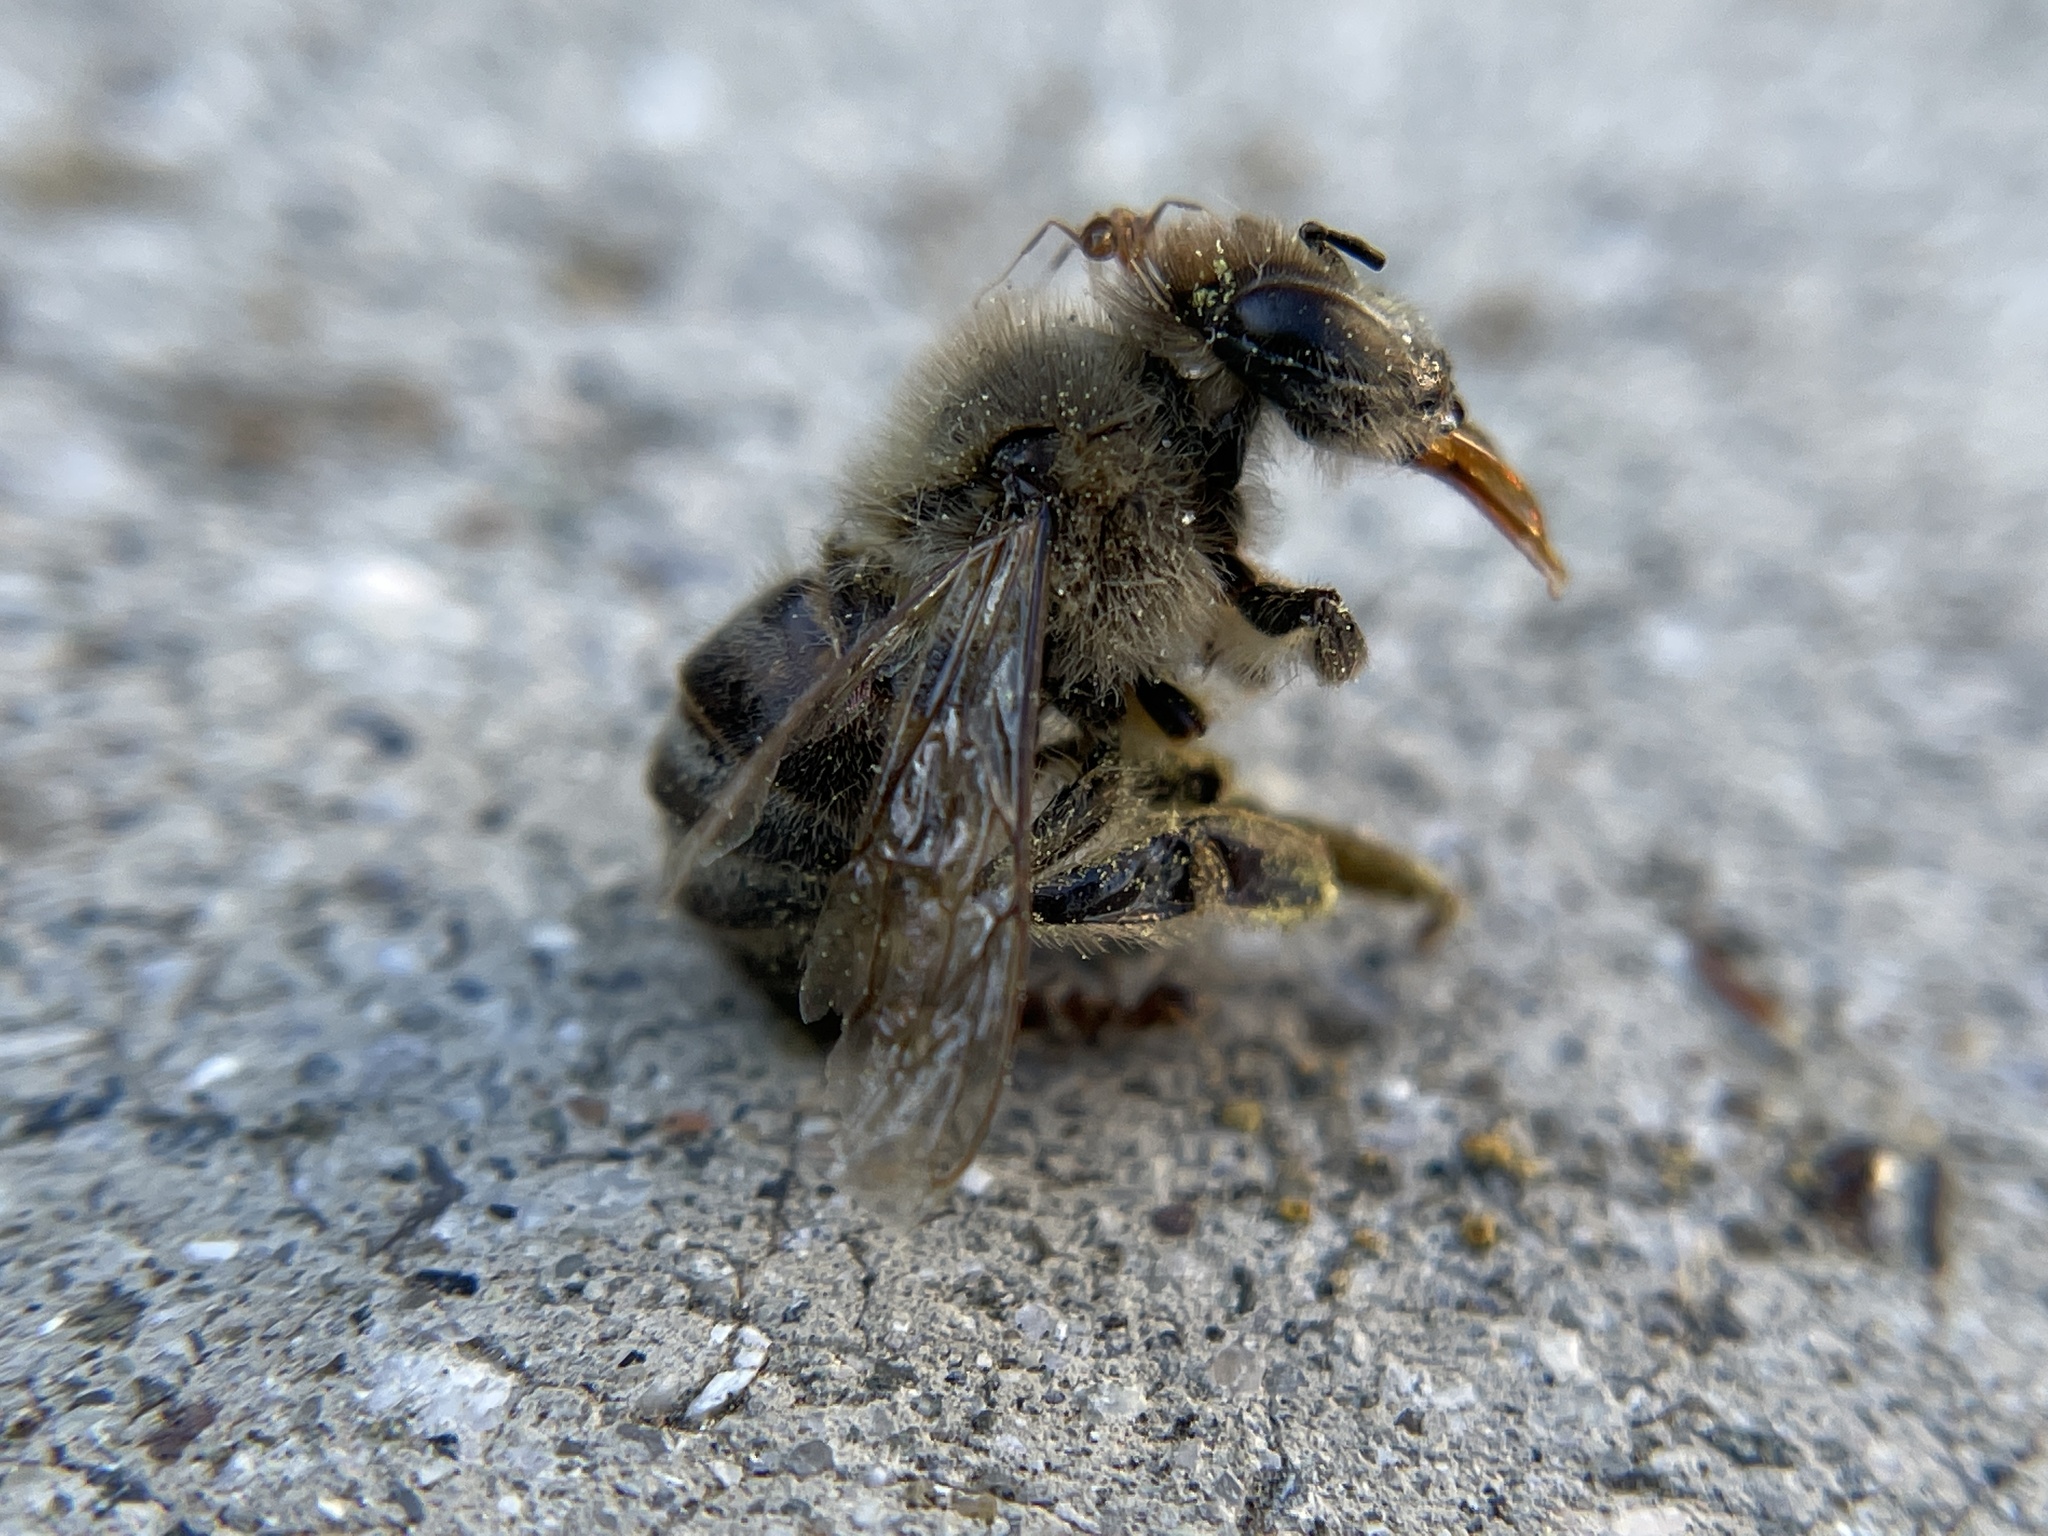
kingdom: Animalia
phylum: Arthropoda
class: Insecta
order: Hymenoptera
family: Apidae
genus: Apis
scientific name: Apis mellifera
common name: Honey bee
